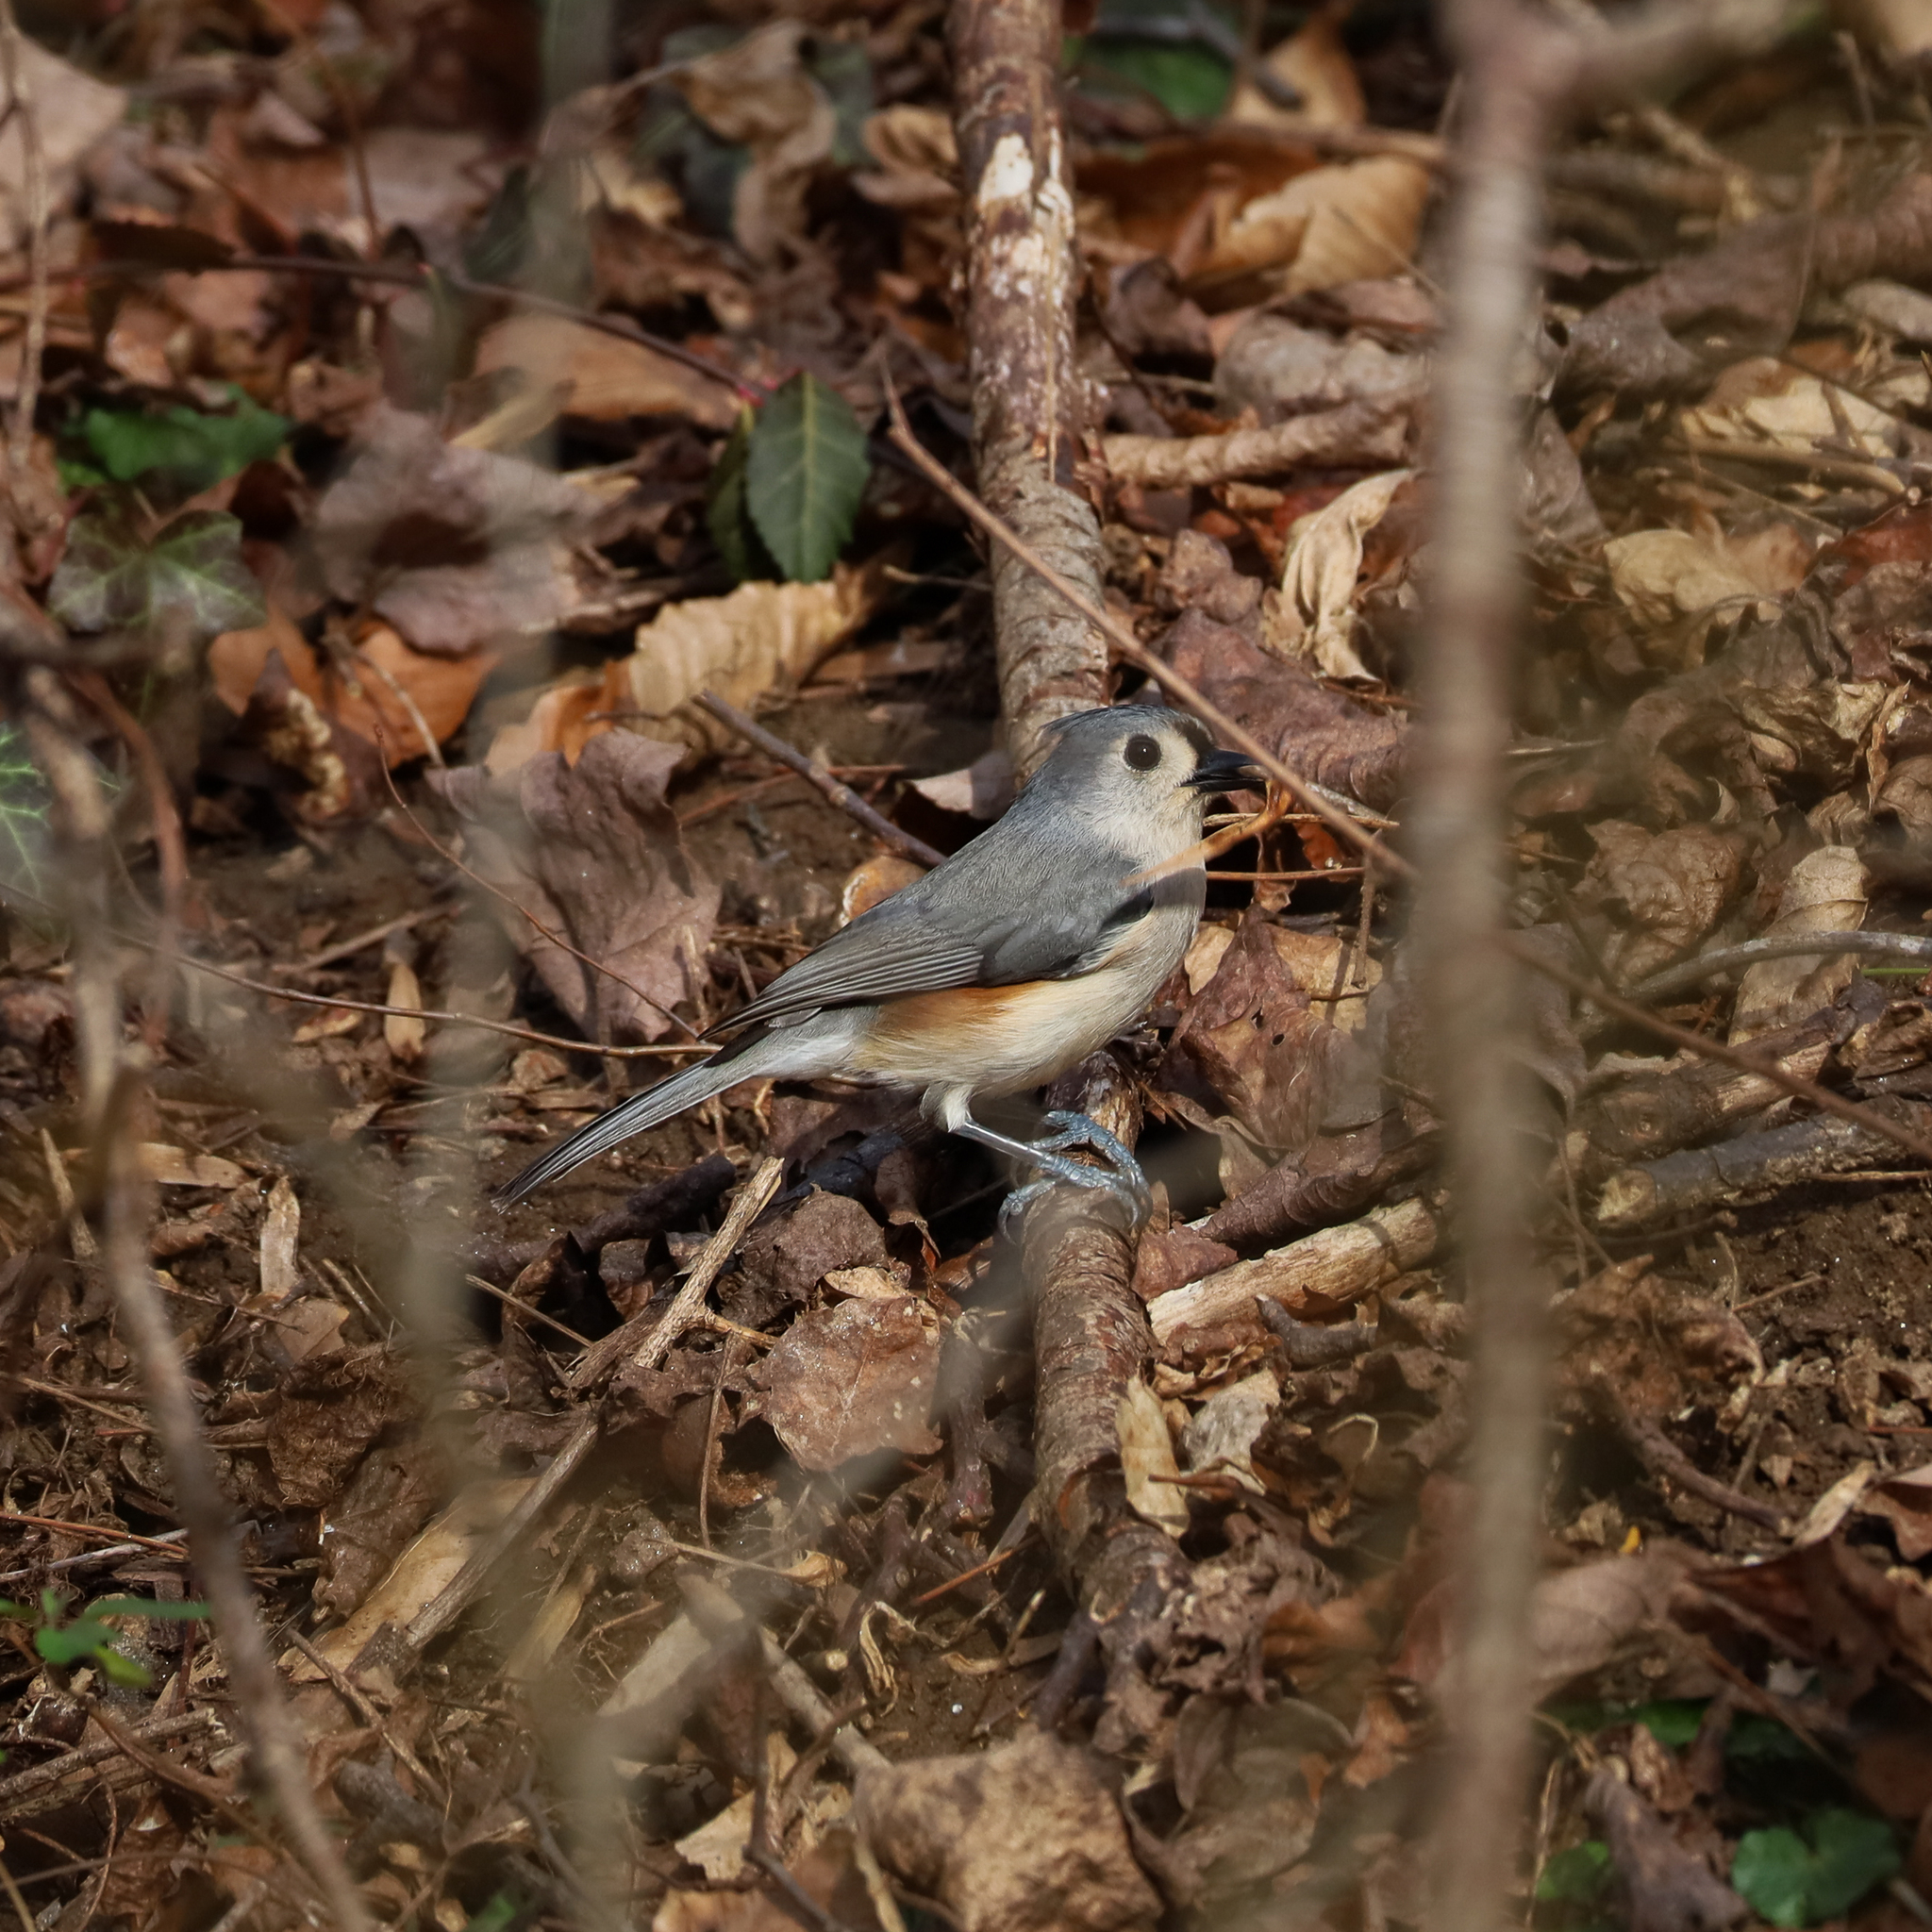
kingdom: Animalia
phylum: Chordata
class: Aves
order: Passeriformes
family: Paridae
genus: Baeolophus
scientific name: Baeolophus bicolor
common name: Tufted titmouse
